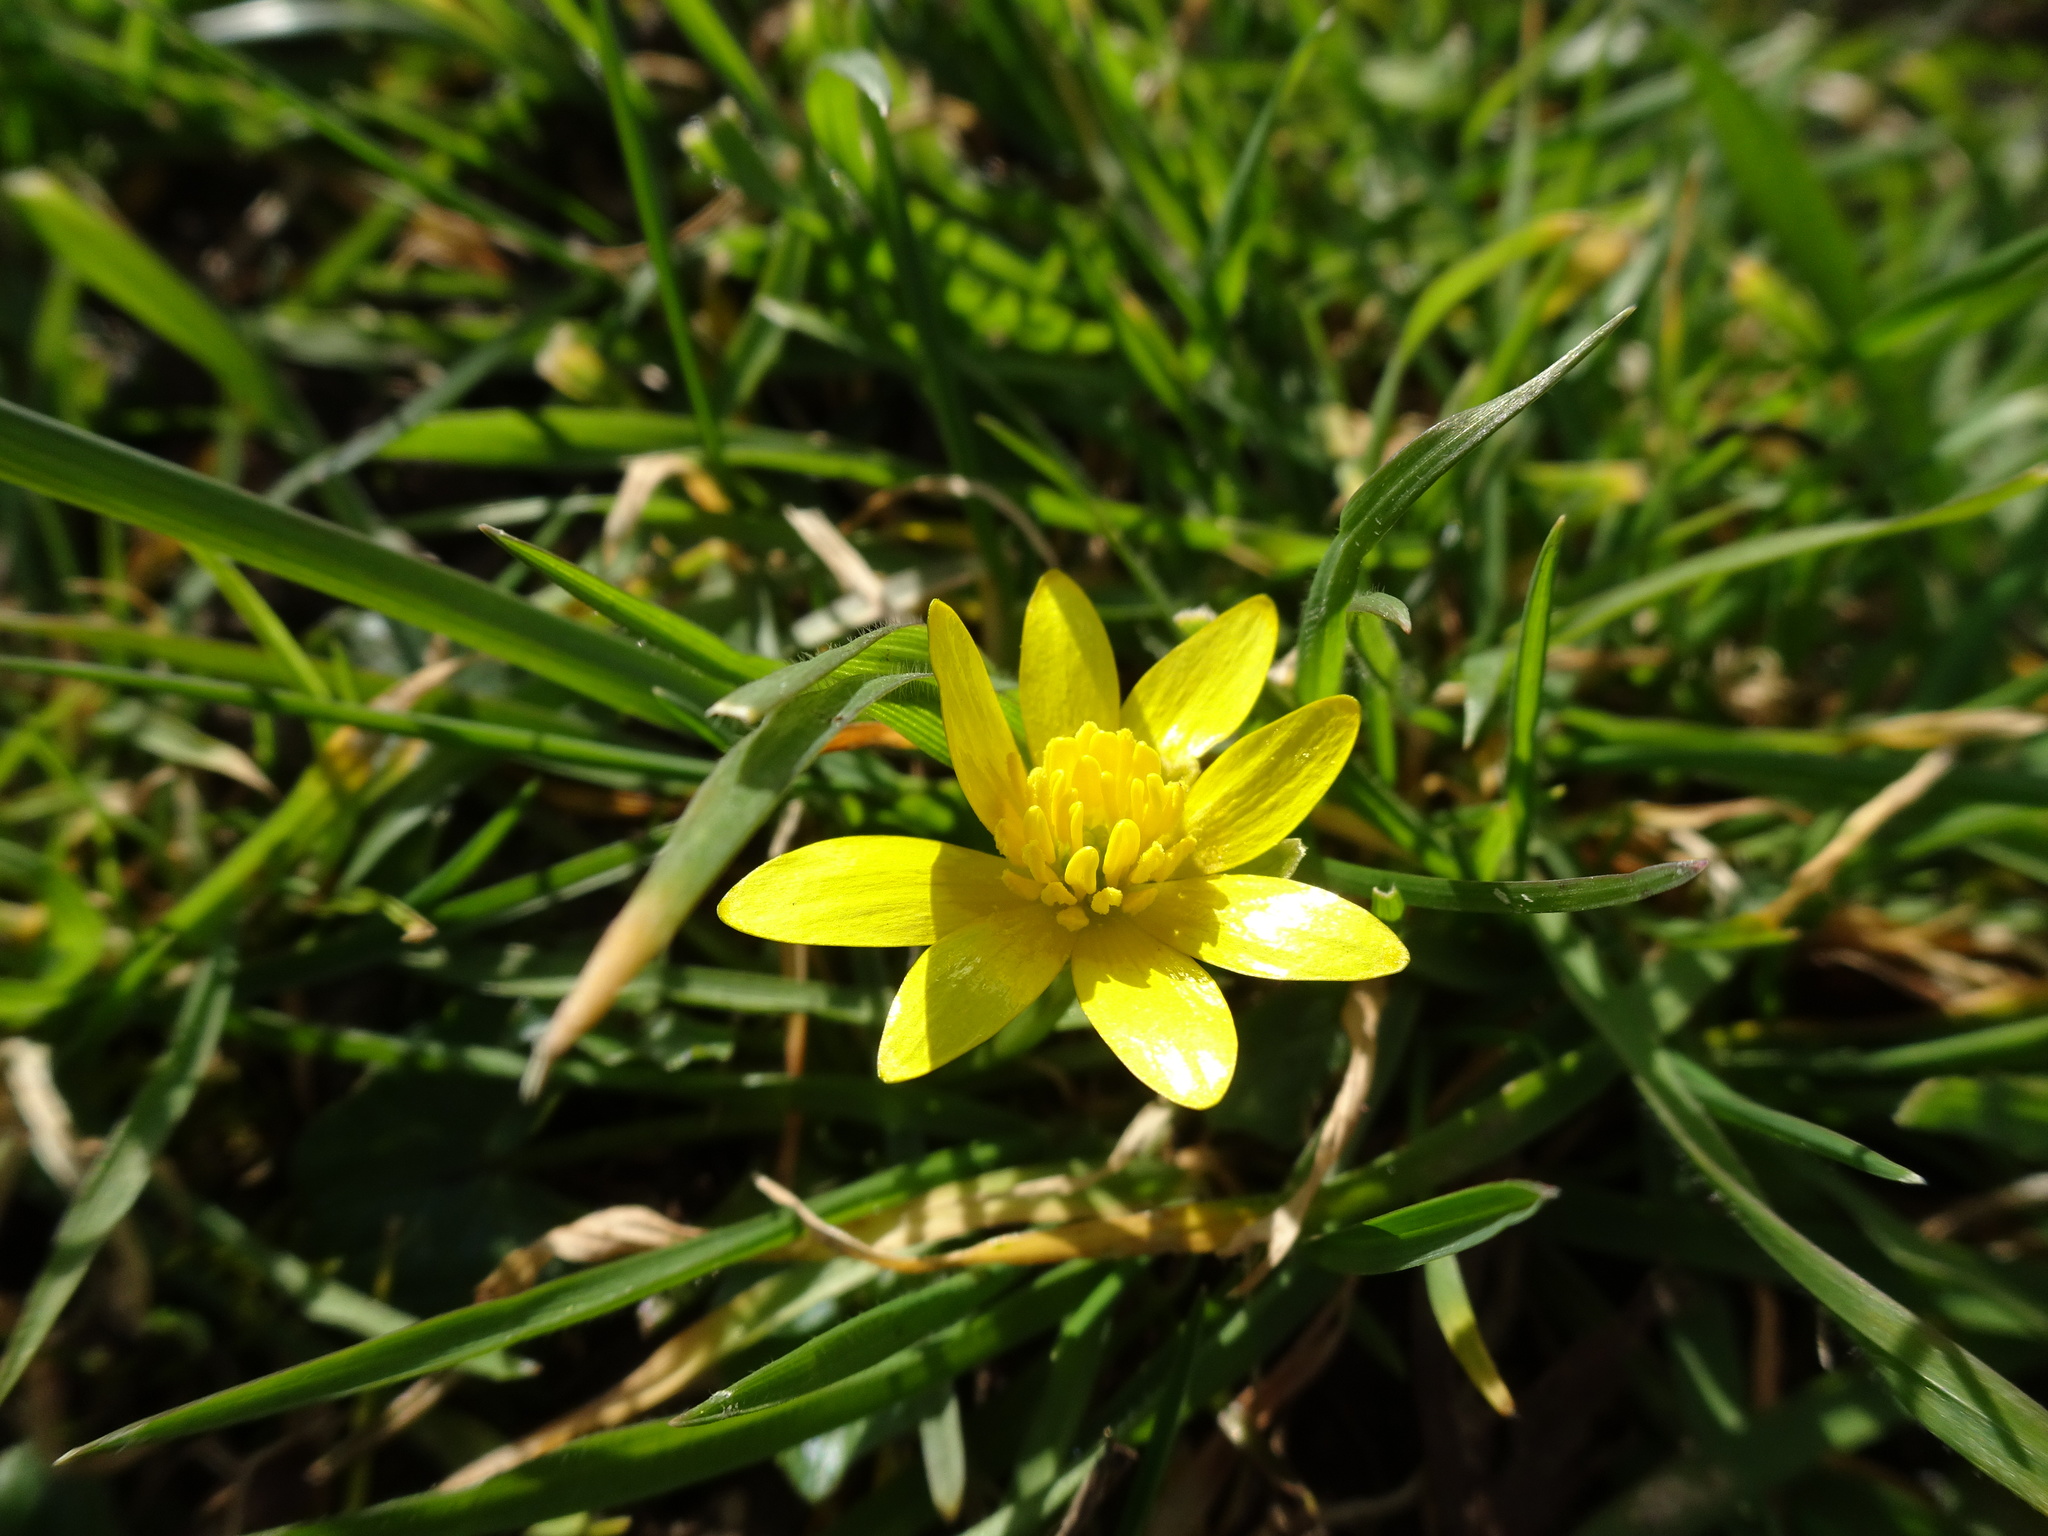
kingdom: Plantae
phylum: Tracheophyta
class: Magnoliopsida
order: Ranunculales
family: Ranunculaceae
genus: Ficaria
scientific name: Ficaria verna
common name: Lesser celandine
